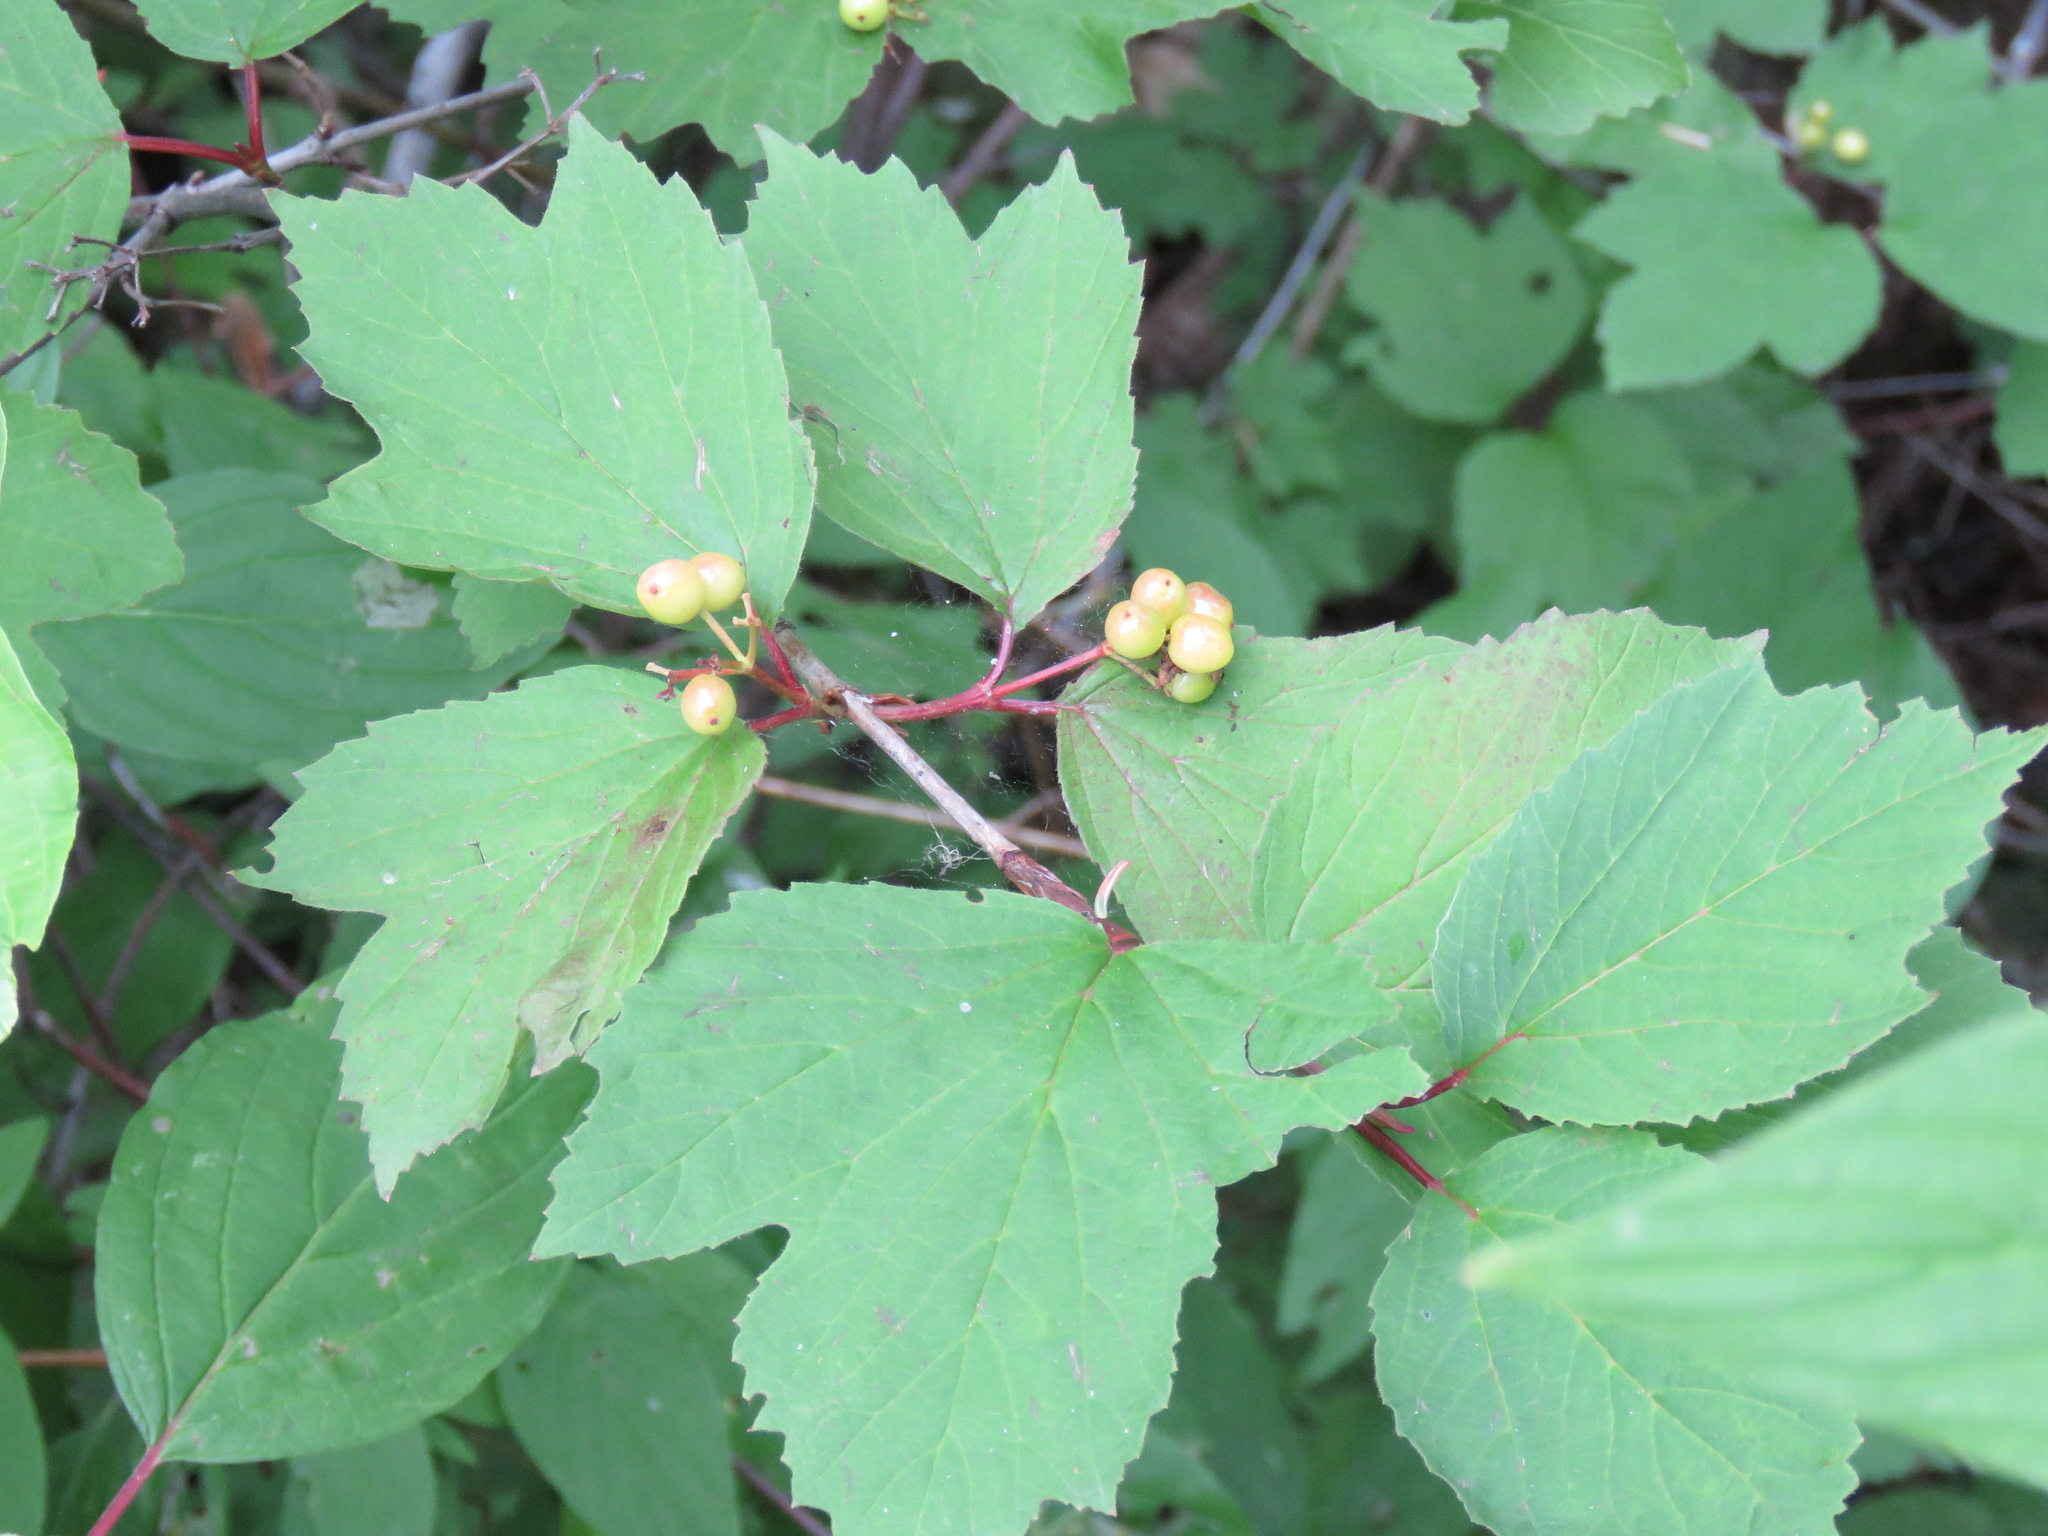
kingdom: Plantae
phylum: Tracheophyta
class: Magnoliopsida
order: Dipsacales
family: Viburnaceae
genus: Viburnum
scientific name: Viburnum edule
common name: Mooseberry
